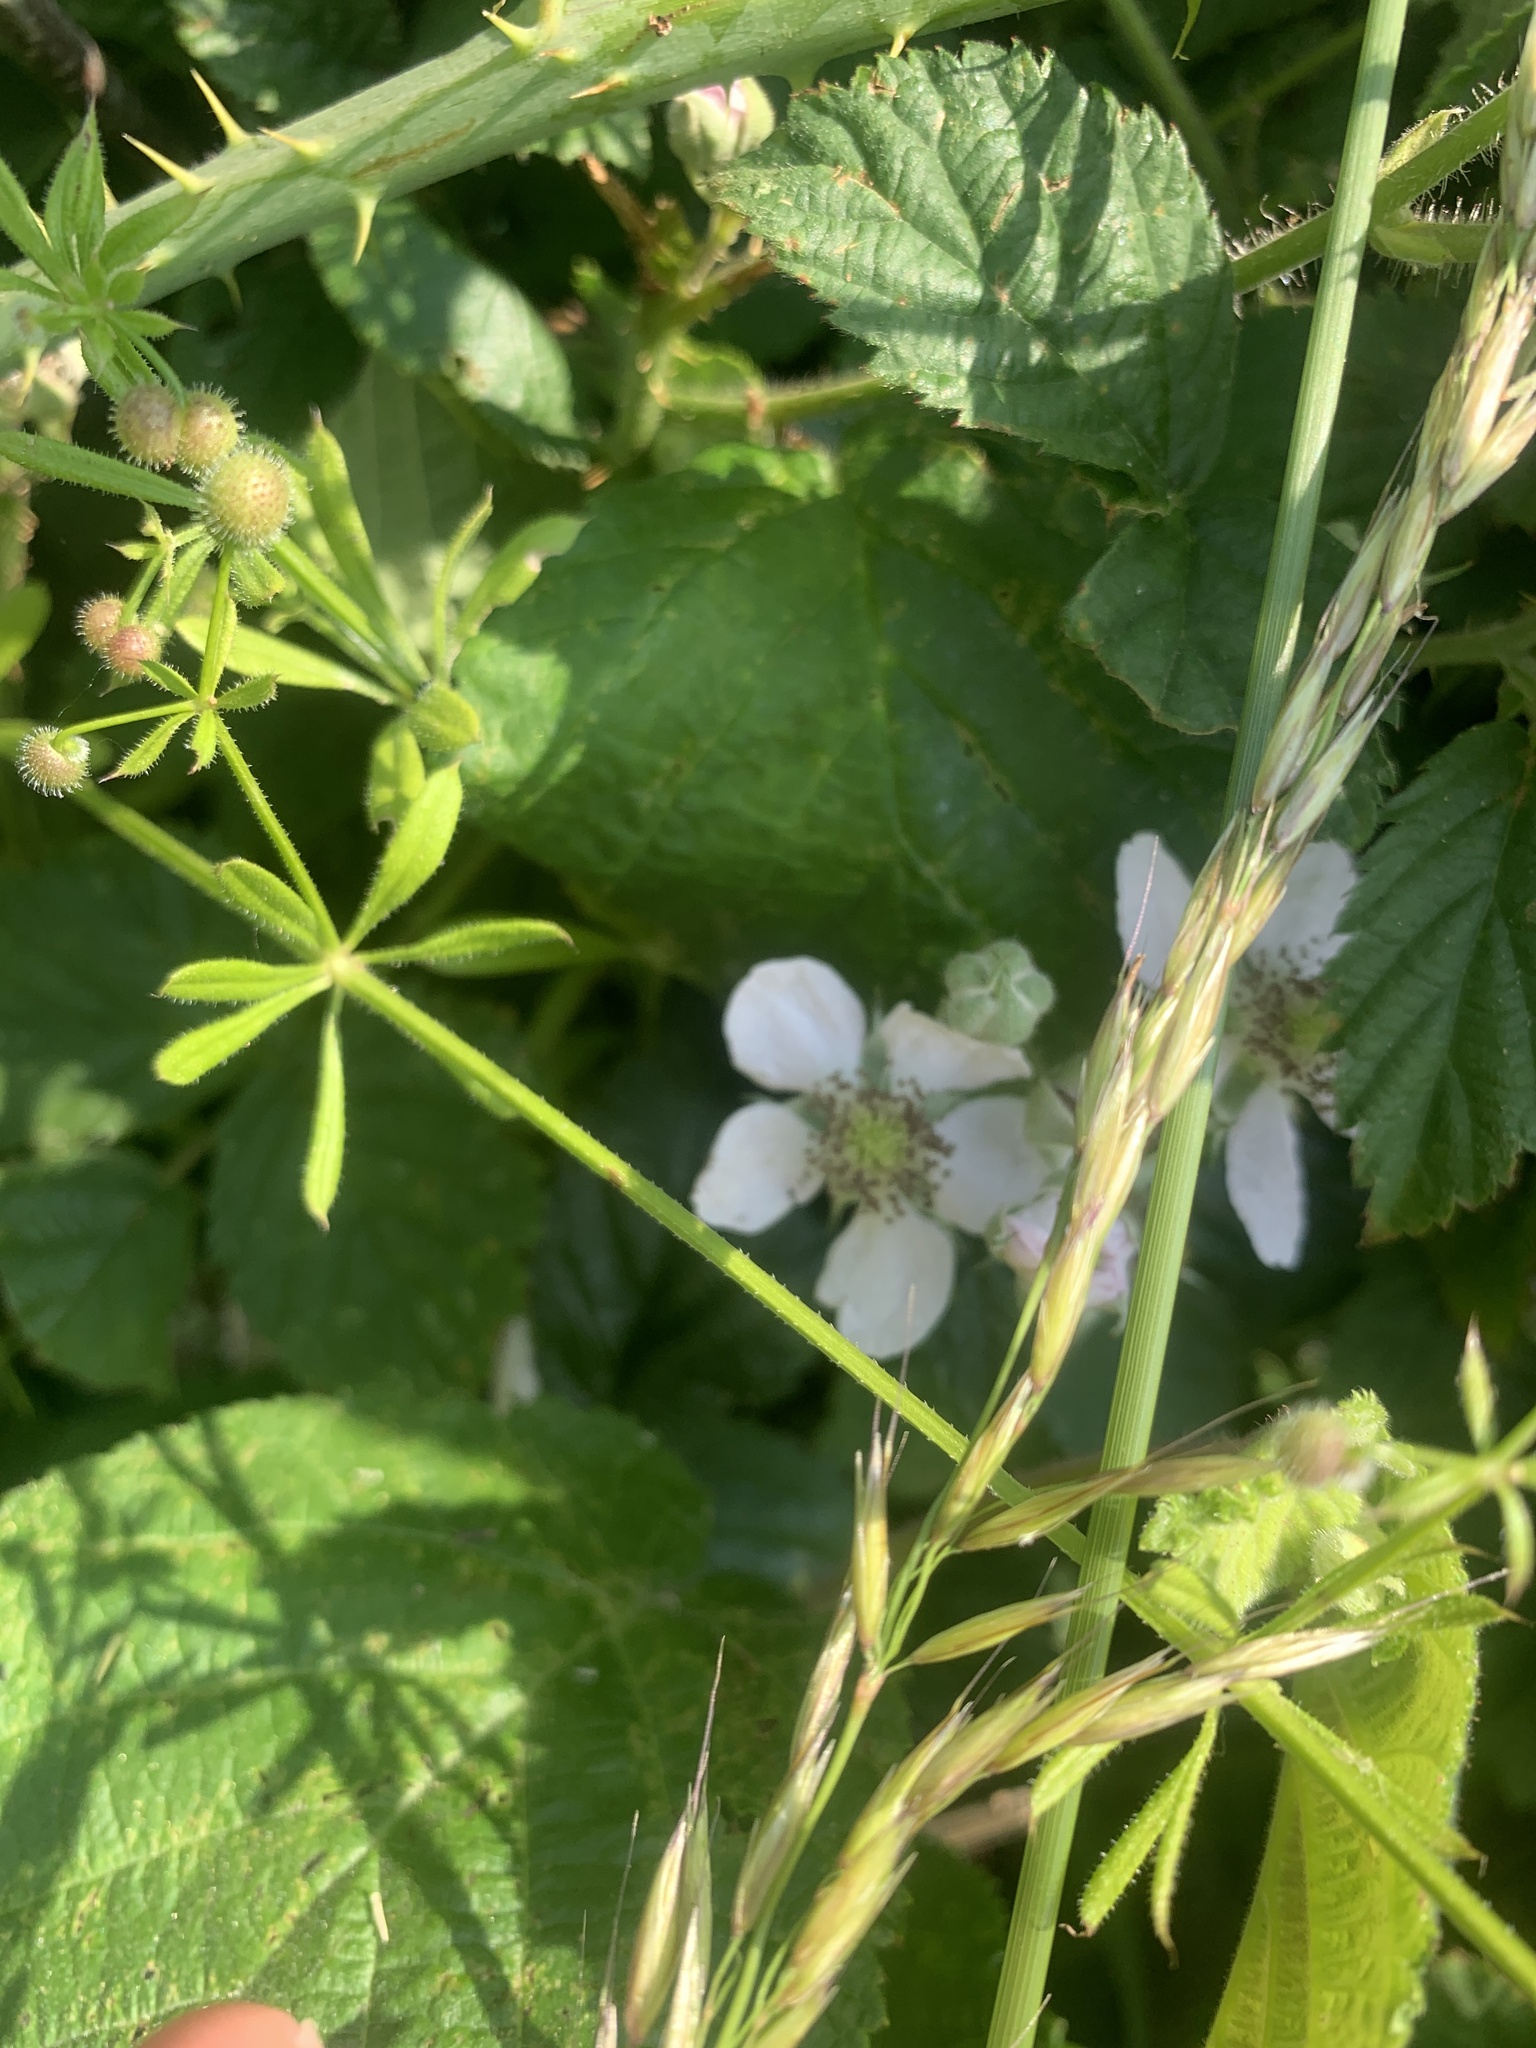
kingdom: Plantae
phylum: Tracheophyta
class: Magnoliopsida
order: Rosales
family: Rosaceae
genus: Rubus
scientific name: Rubus fruticosus
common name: Blackberry, bramble
